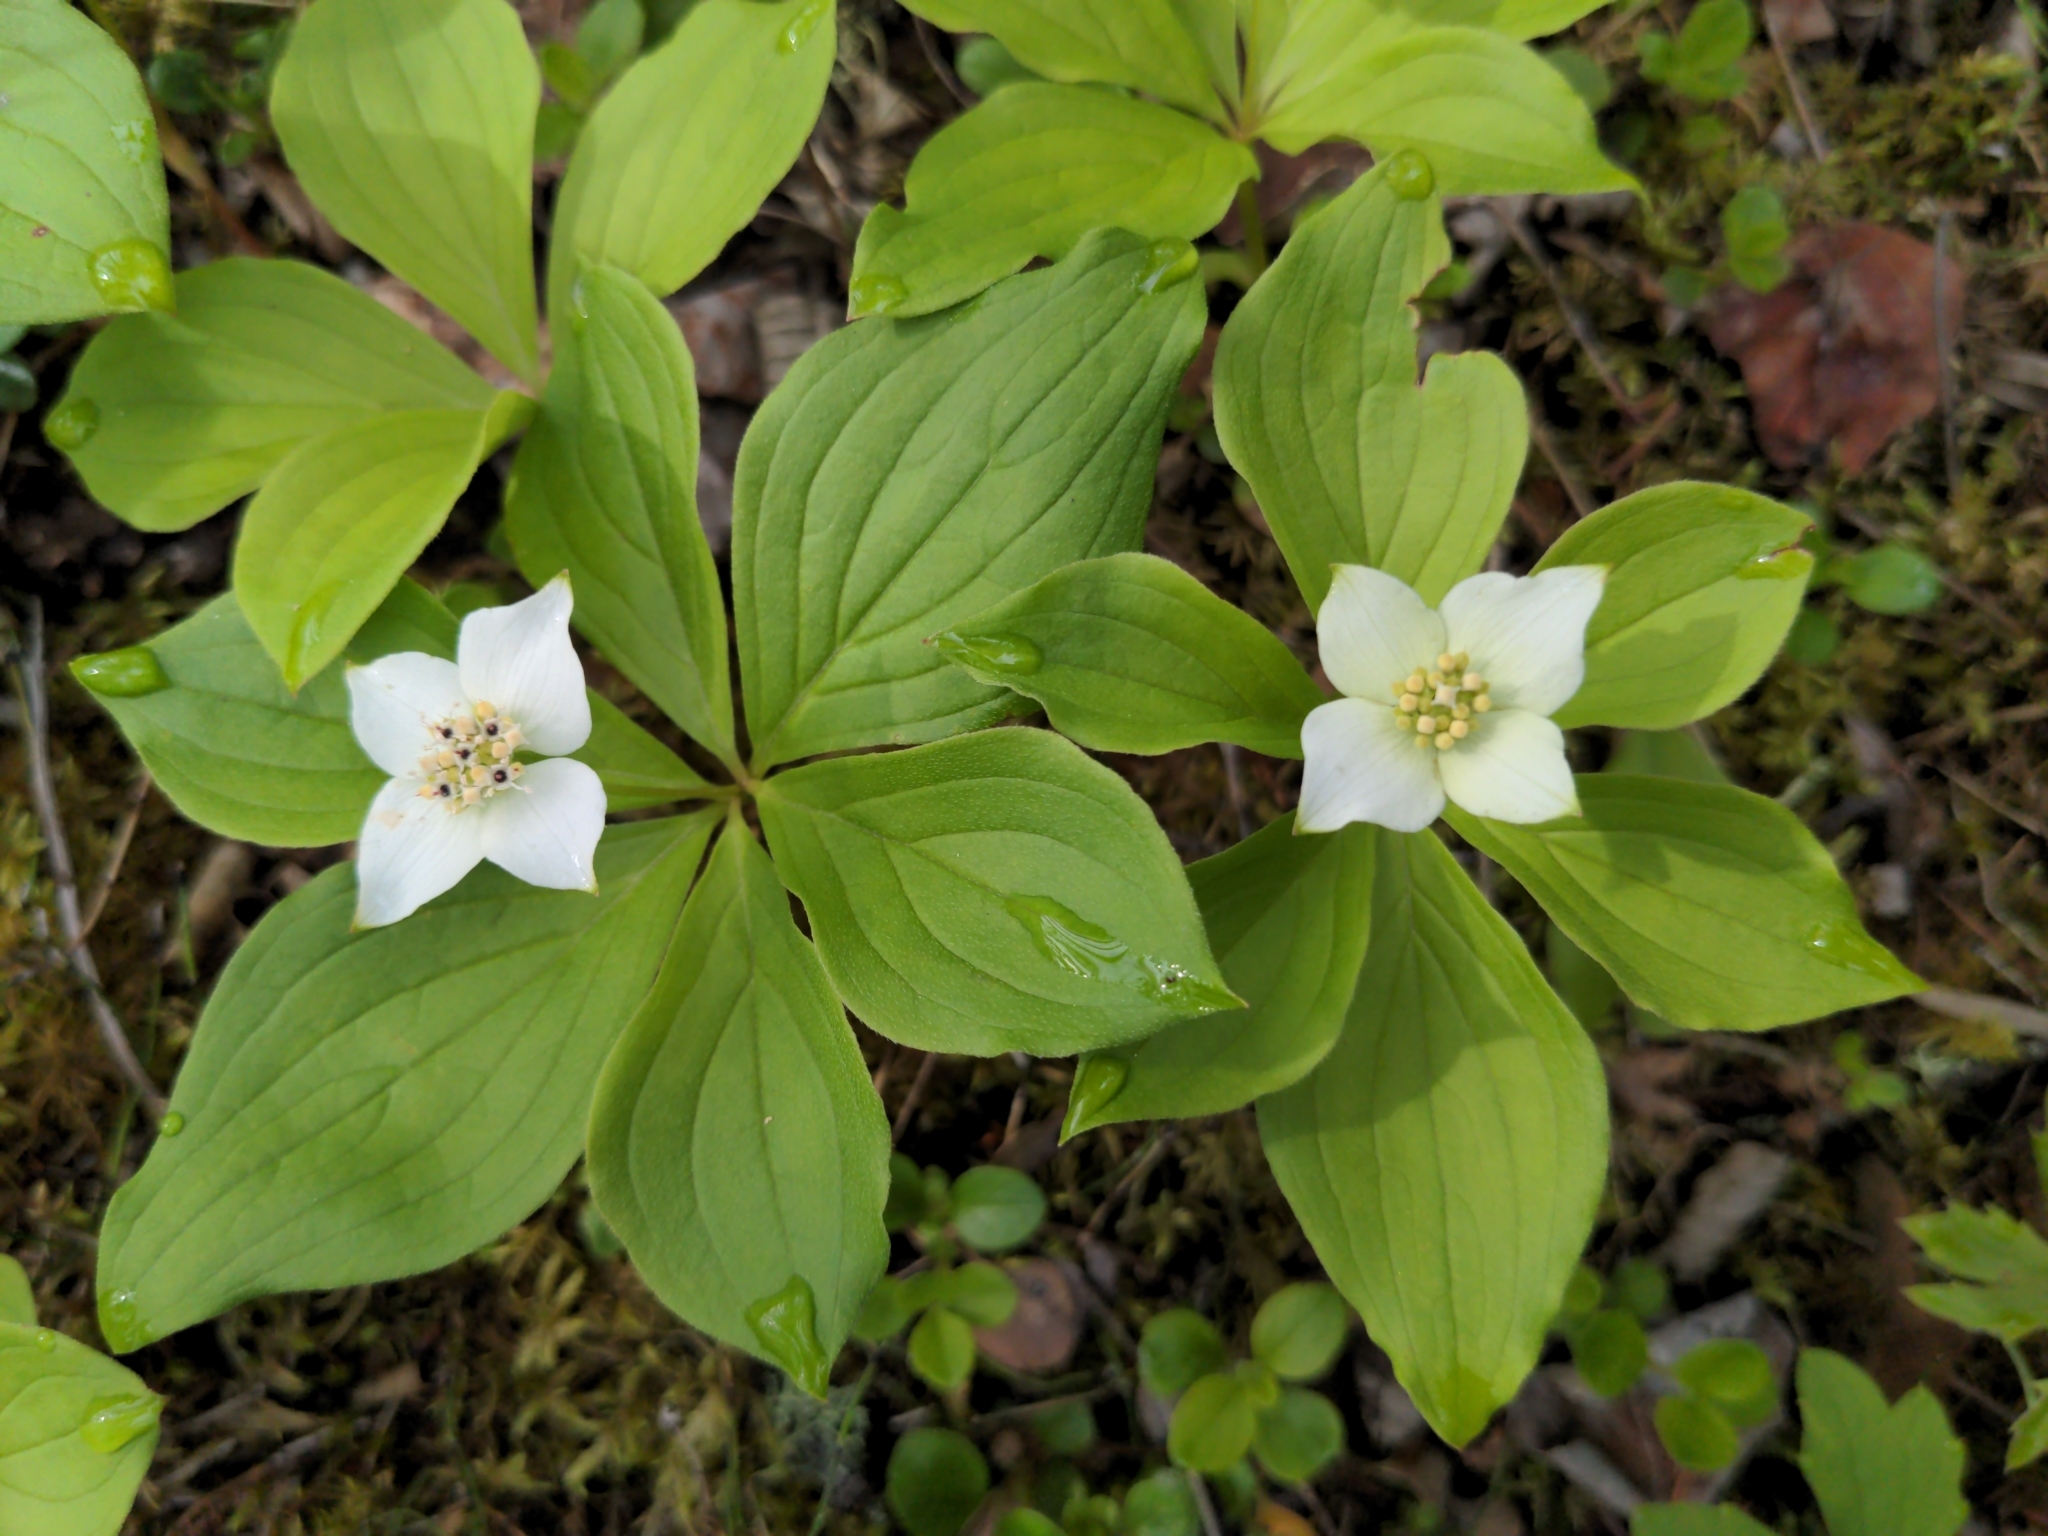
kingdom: Plantae
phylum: Tracheophyta
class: Magnoliopsida
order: Cornales
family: Cornaceae
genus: Cornus
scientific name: Cornus canadensis
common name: Creeping dogwood
